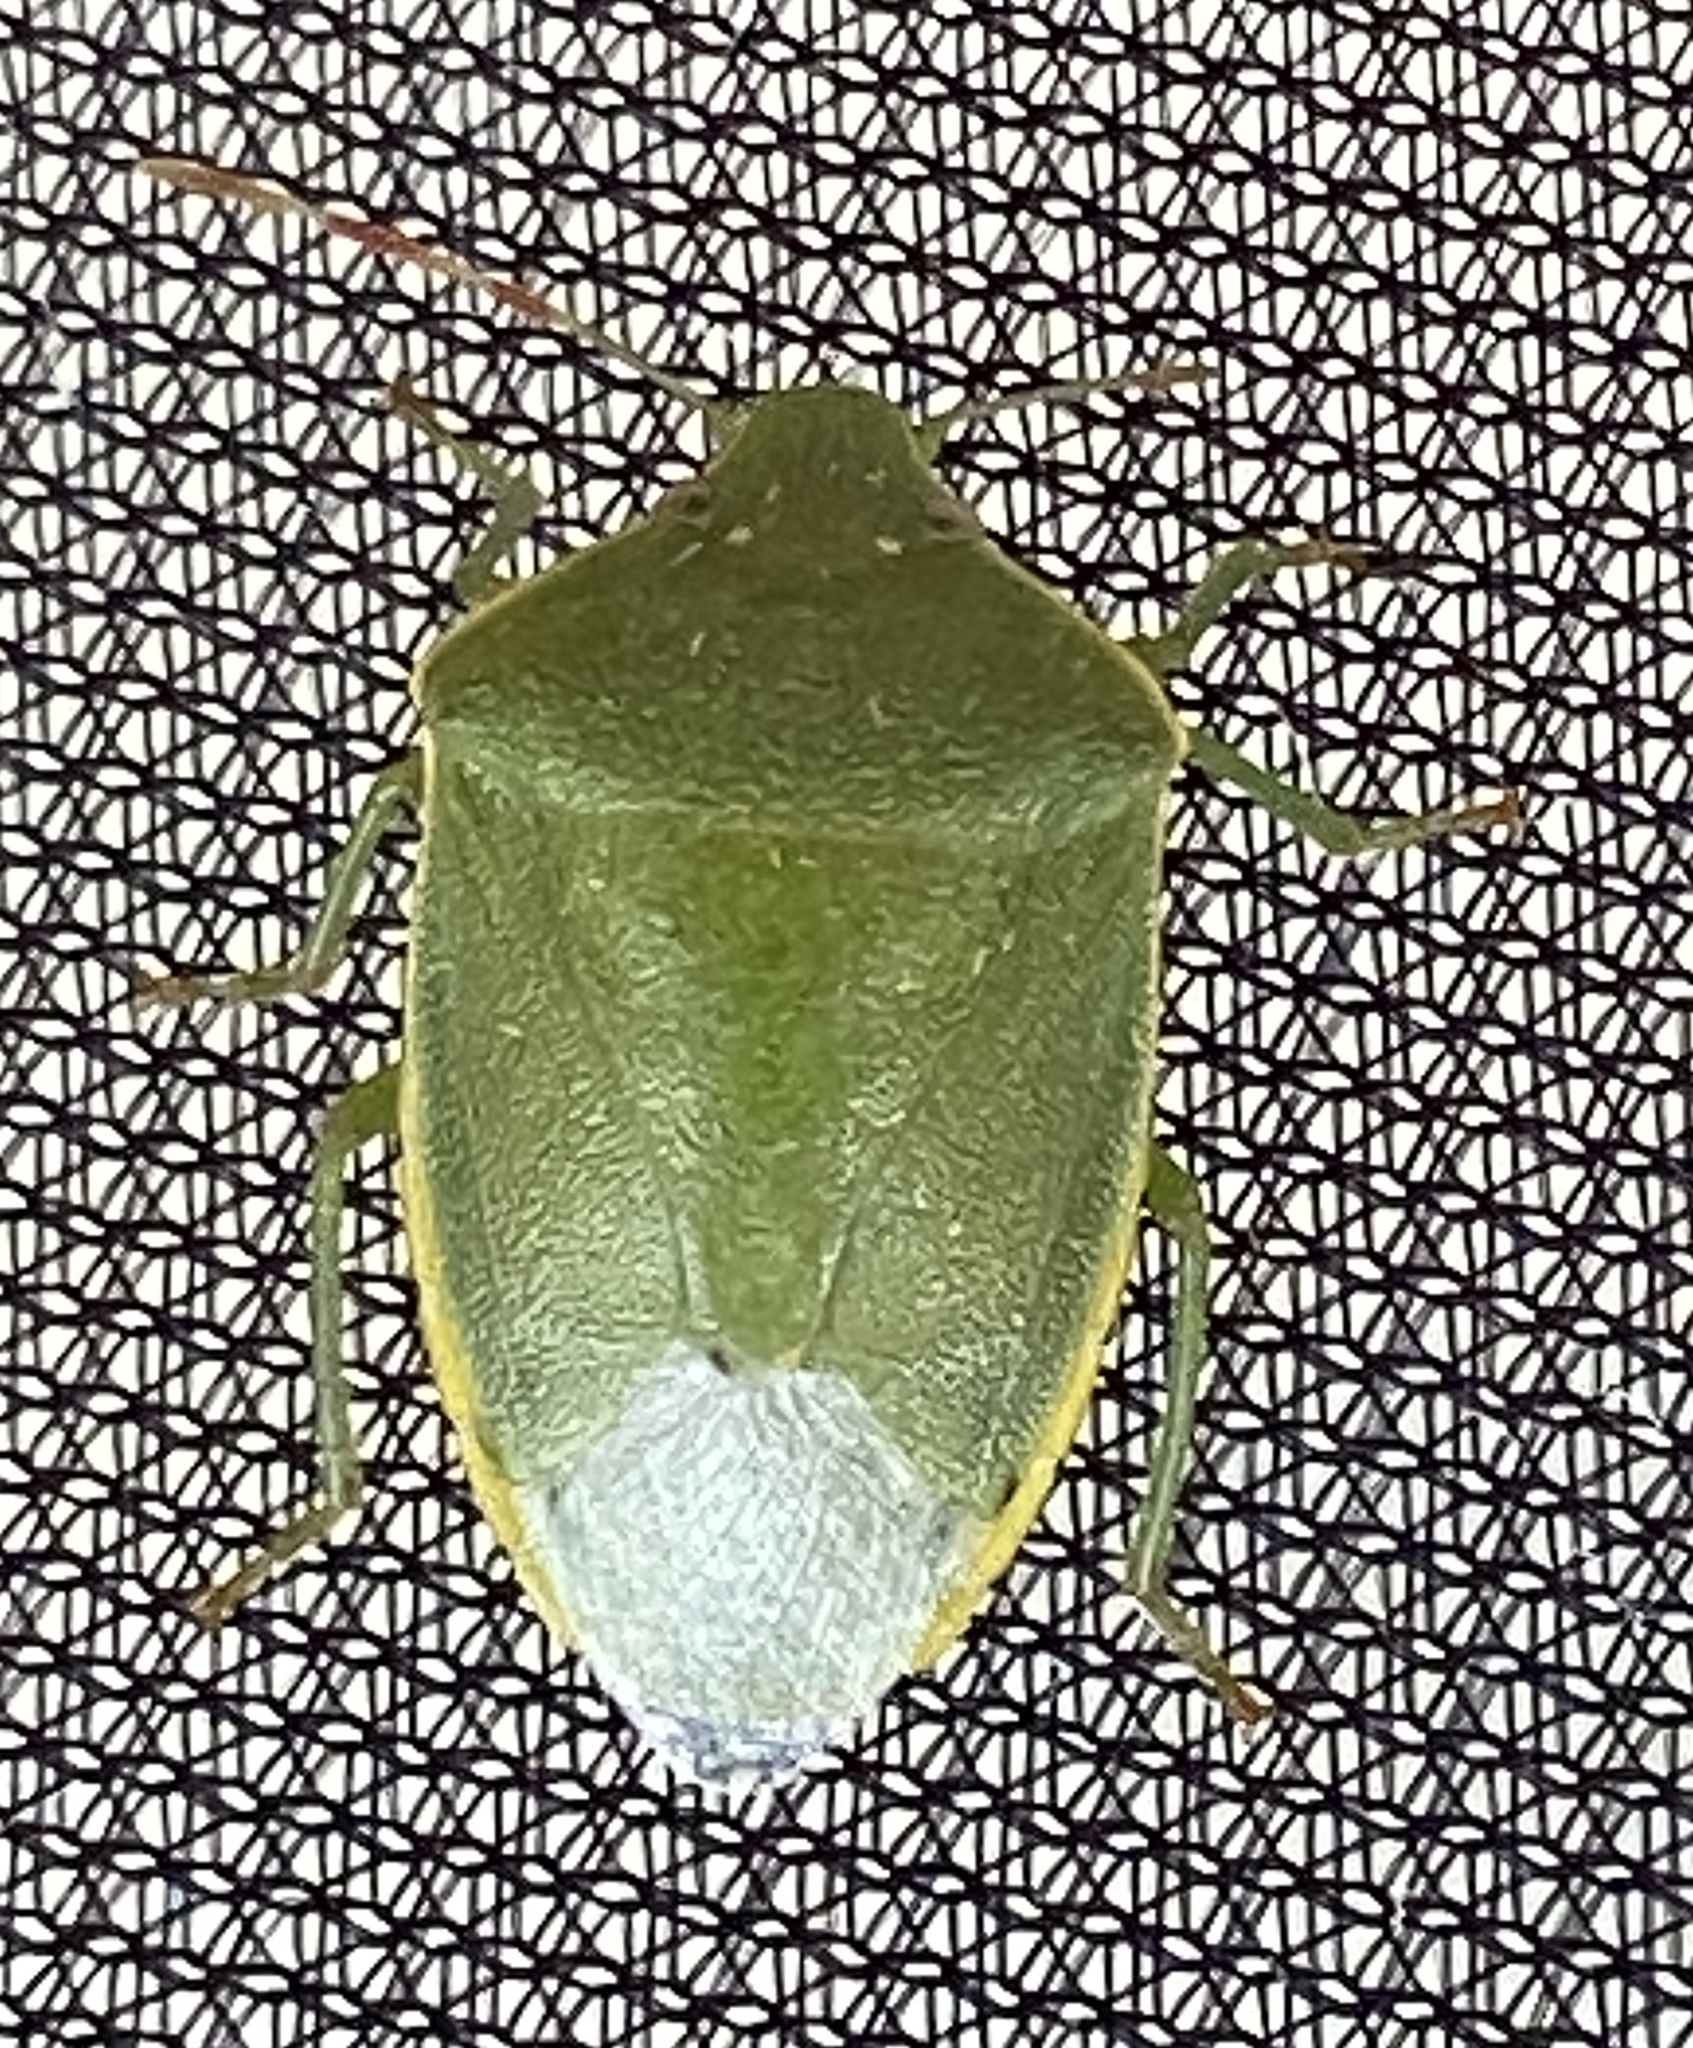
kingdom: Animalia
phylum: Arthropoda
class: Insecta
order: Hemiptera
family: Pentatomidae
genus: Acrosternum
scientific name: Acrosternum millierei
